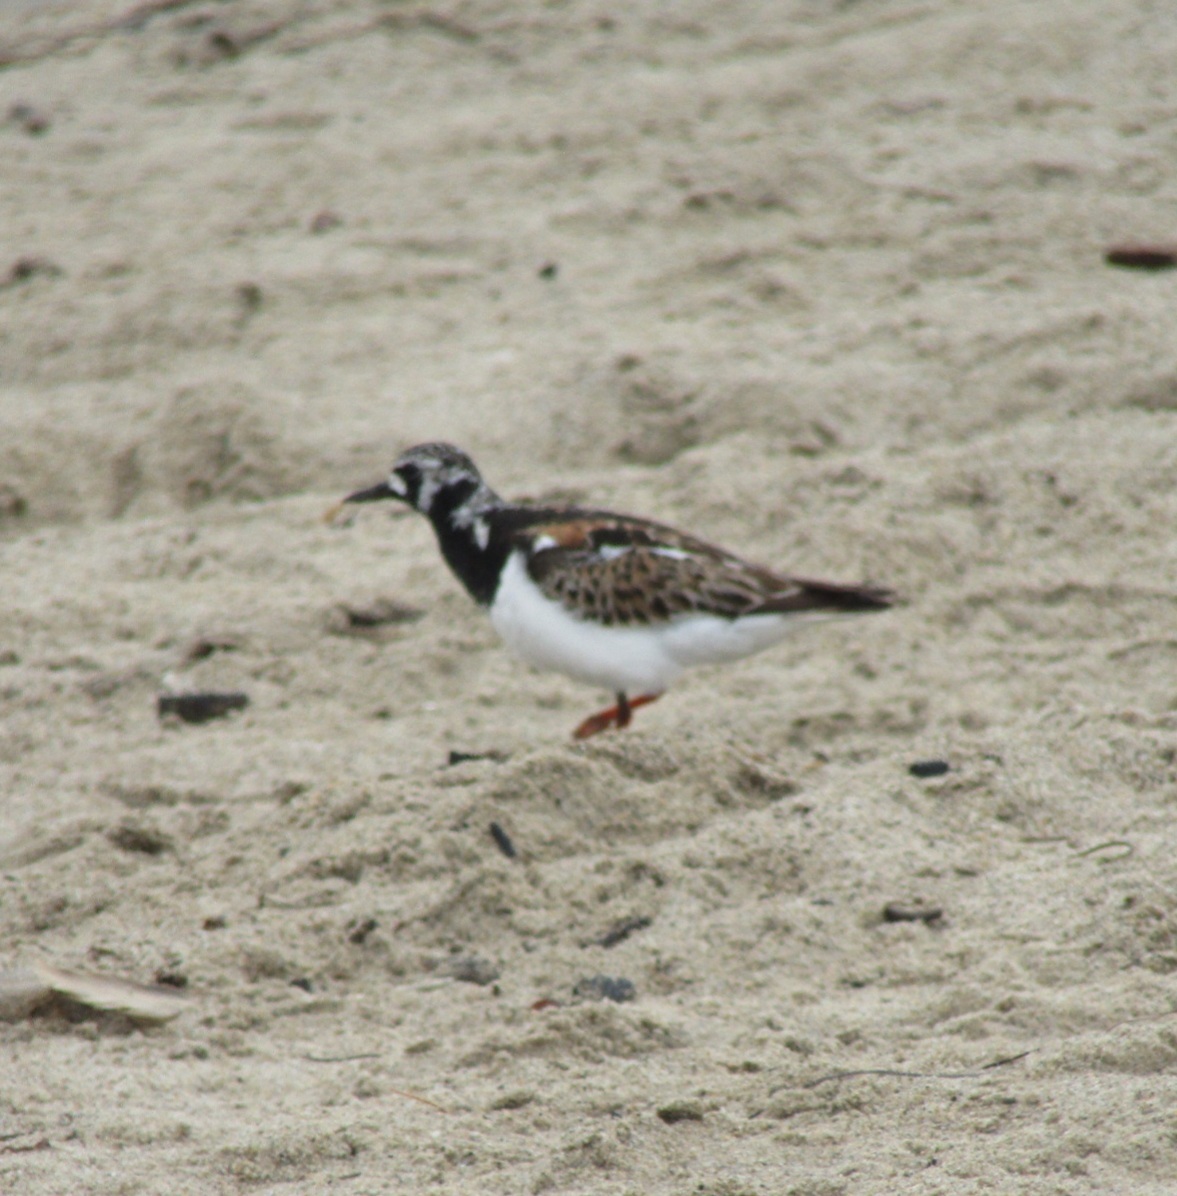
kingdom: Animalia
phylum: Chordata
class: Aves
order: Charadriiformes
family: Scolopacidae
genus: Arenaria
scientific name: Arenaria interpres
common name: Ruddy turnstone
